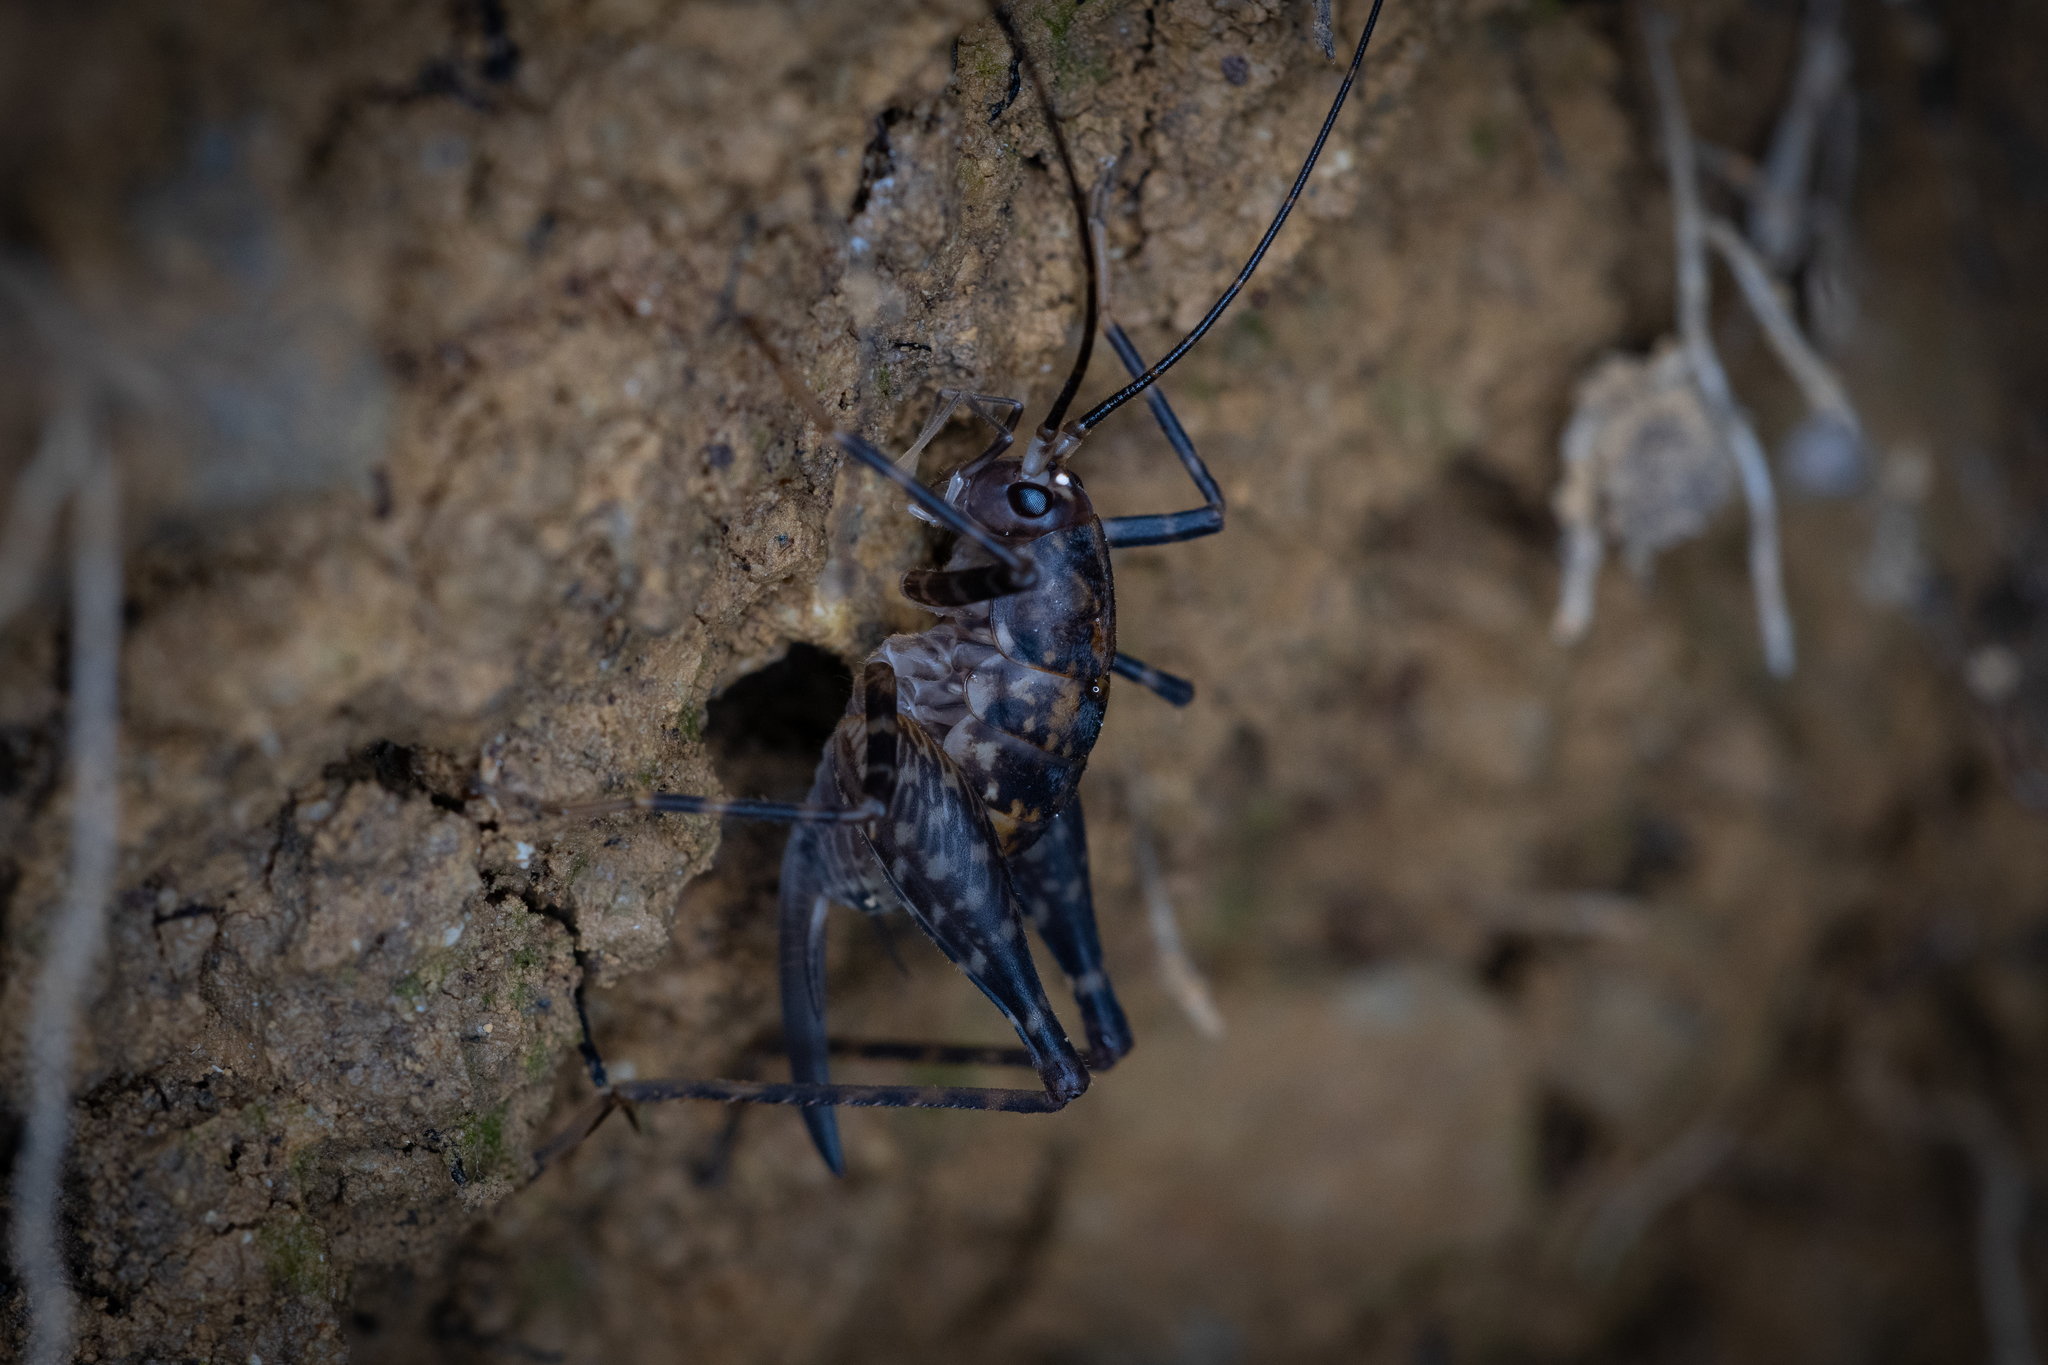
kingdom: Animalia
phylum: Arthropoda
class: Insecta
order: Orthoptera
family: Rhaphidophoridae
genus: Pleioplectron
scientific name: Pleioplectron hudsoni
